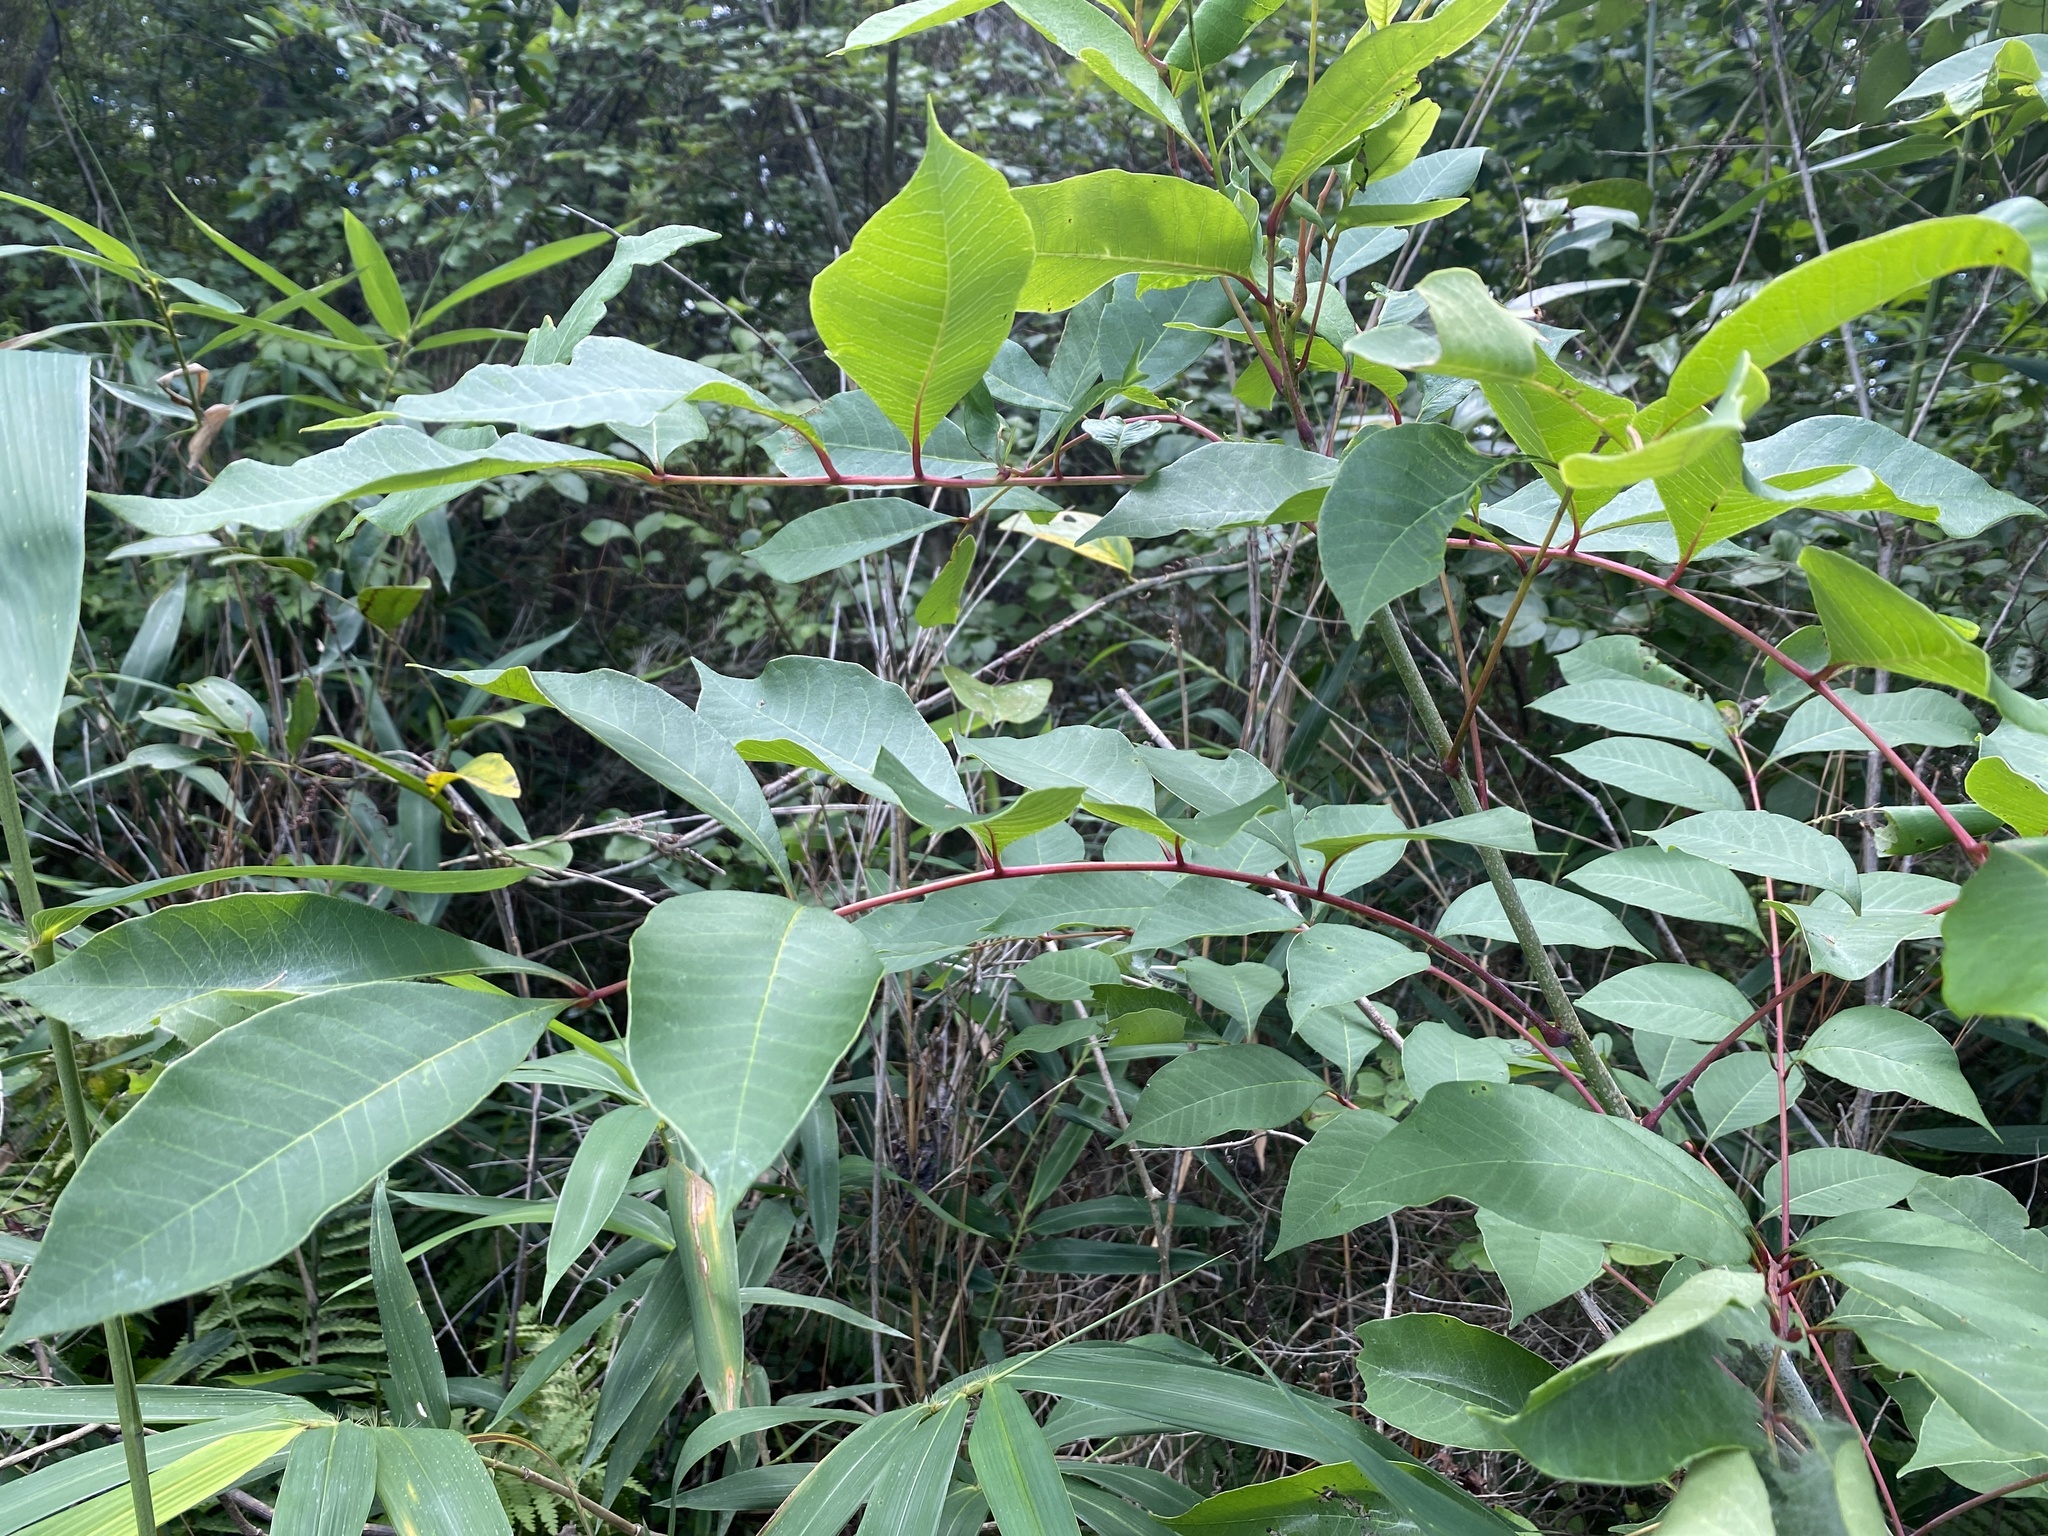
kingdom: Plantae
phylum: Tracheophyta
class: Magnoliopsida
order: Sapindales
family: Anacardiaceae
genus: Toxicodendron
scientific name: Toxicodendron vernix
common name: Poison sumac
